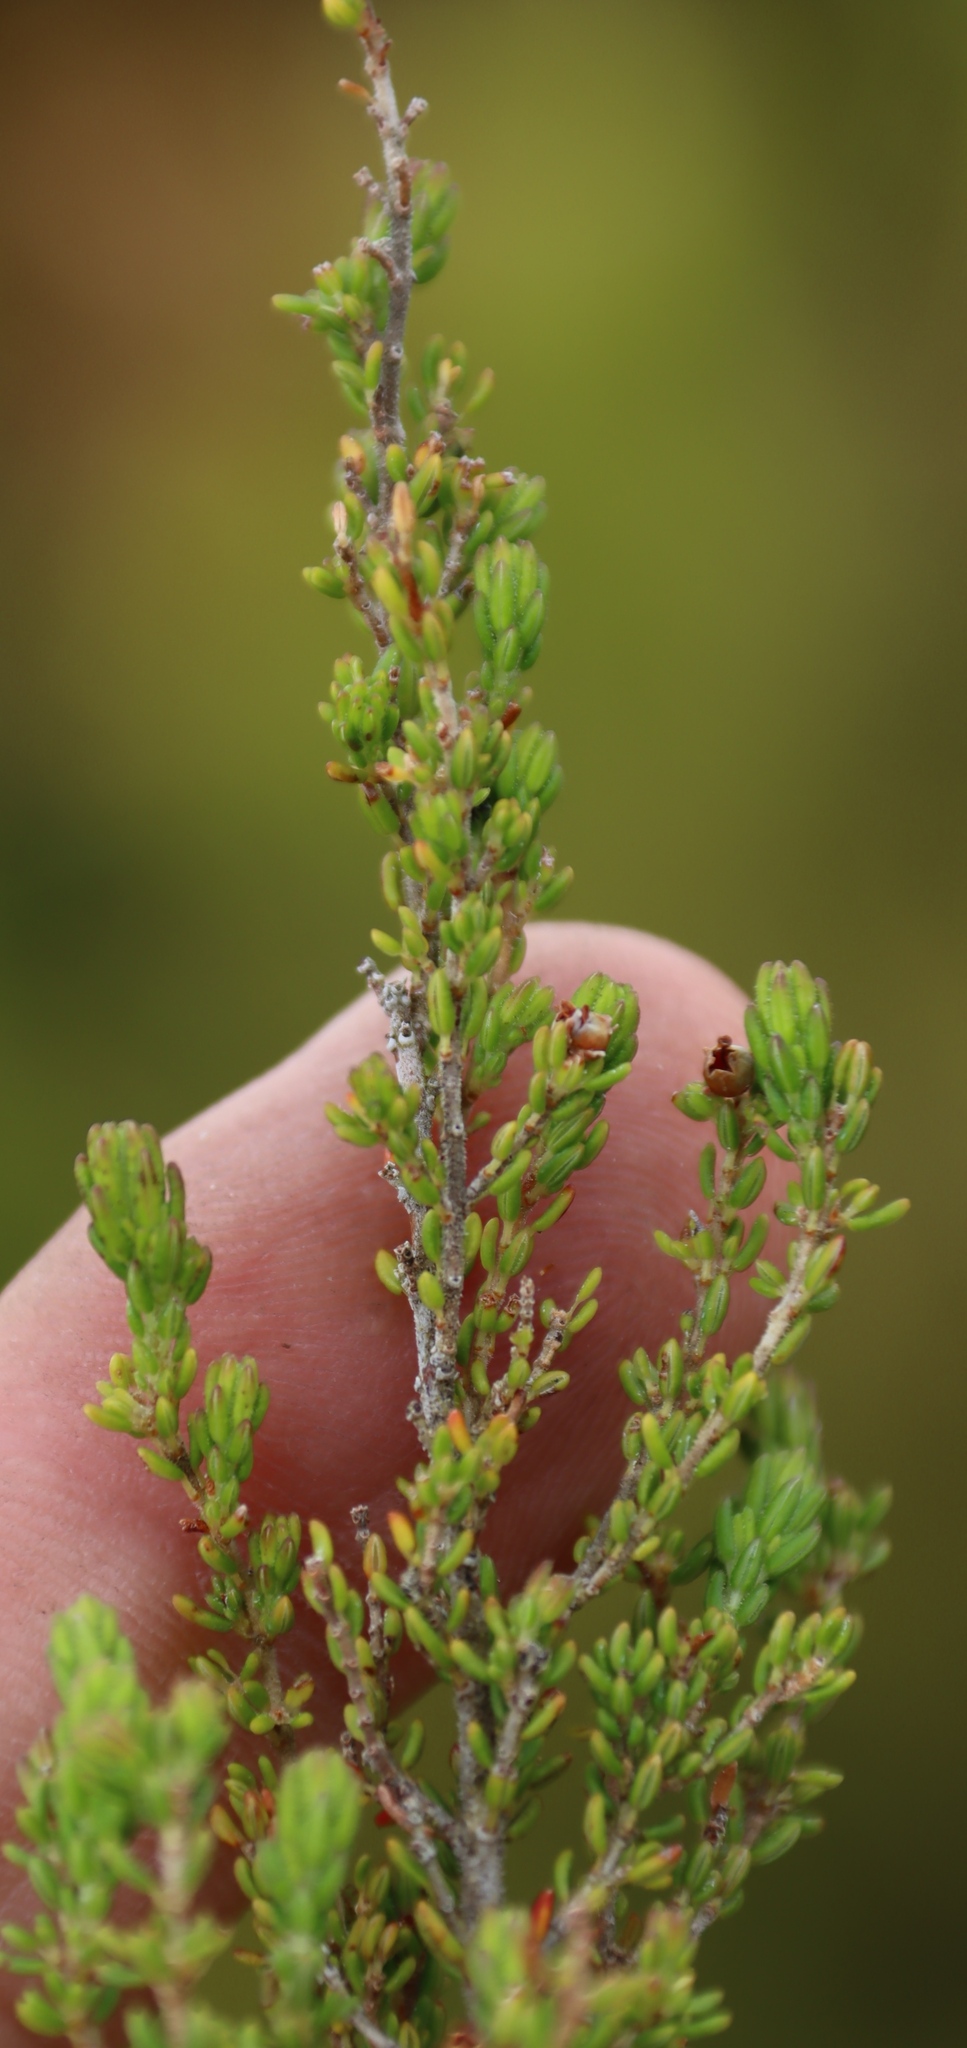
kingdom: Plantae
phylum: Tracheophyta
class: Magnoliopsida
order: Ericales
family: Ericaceae
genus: Erica
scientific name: Erica hispidula
